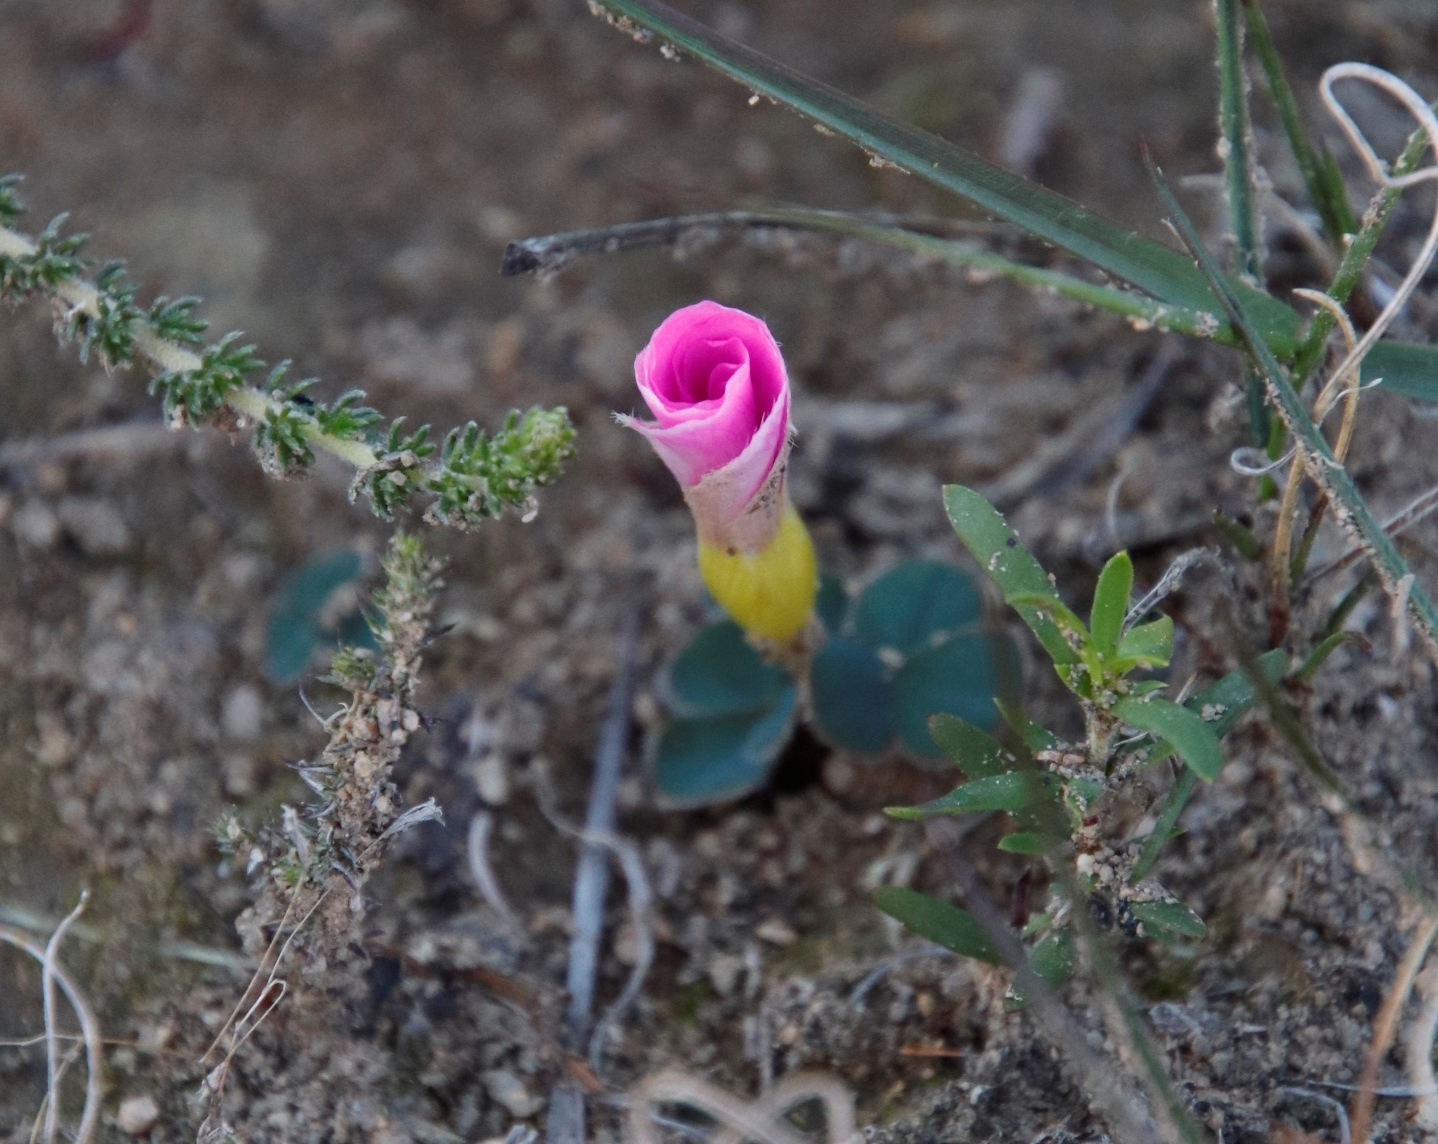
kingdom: Plantae
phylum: Tracheophyta
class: Magnoliopsida
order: Oxalidales
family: Oxalidaceae
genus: Oxalis
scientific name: Oxalis purpurea
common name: Purple woodsorrel
